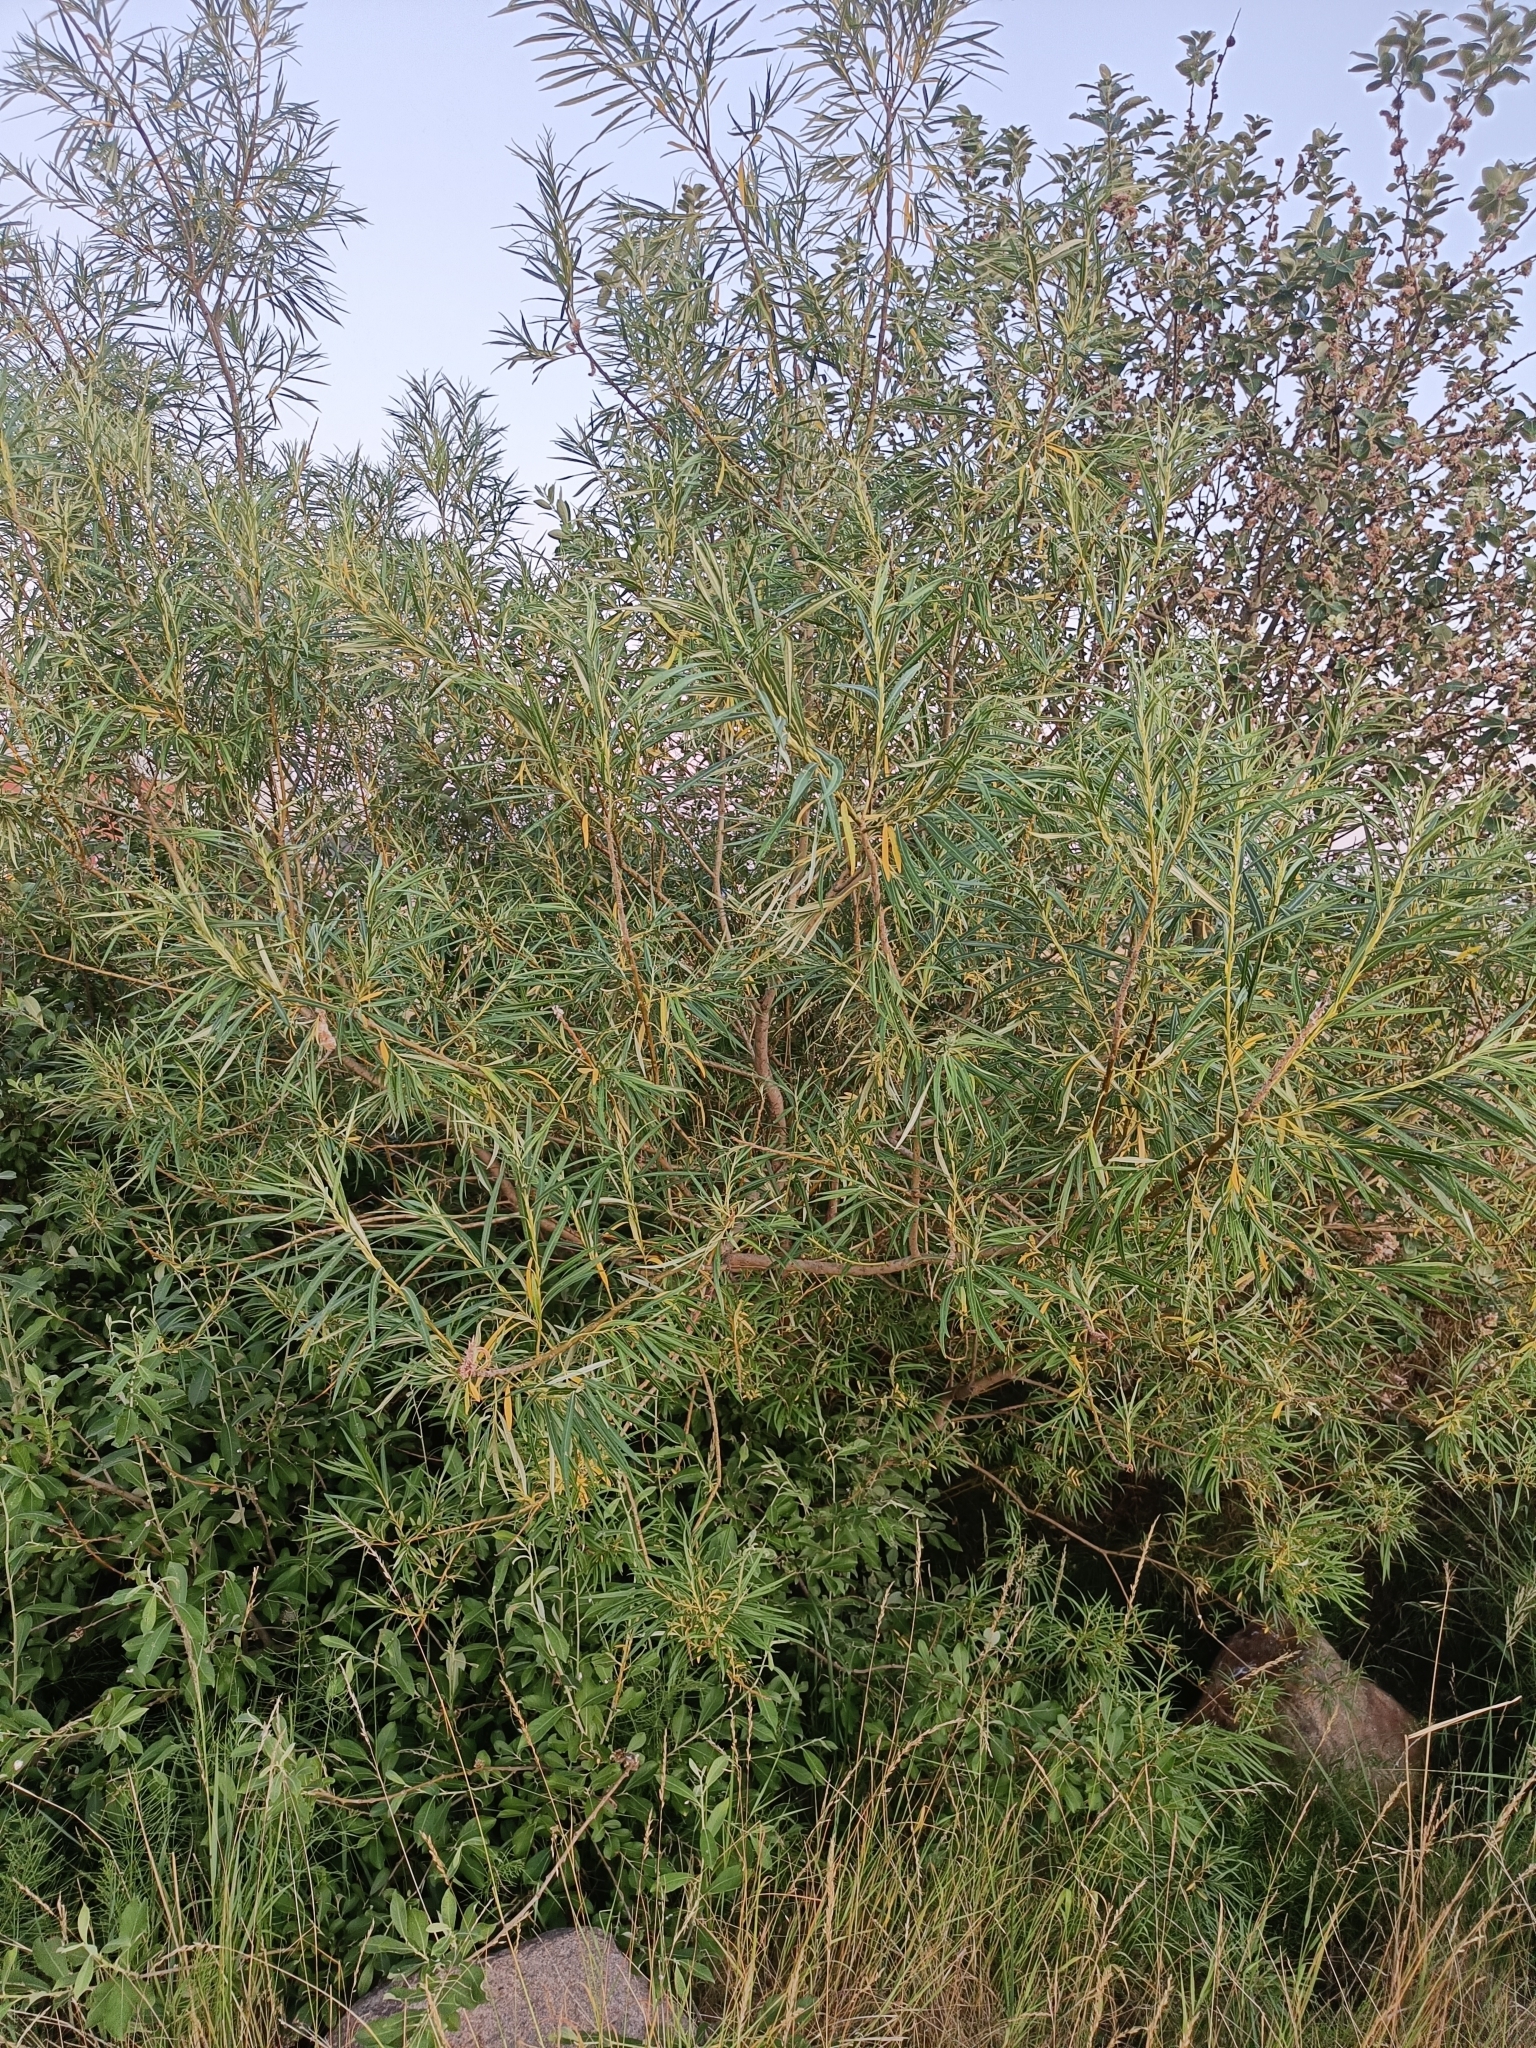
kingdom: Plantae
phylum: Tracheophyta
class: Magnoliopsida
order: Malpighiales
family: Salicaceae
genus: Salix
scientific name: Salix viminalis
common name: Osier
